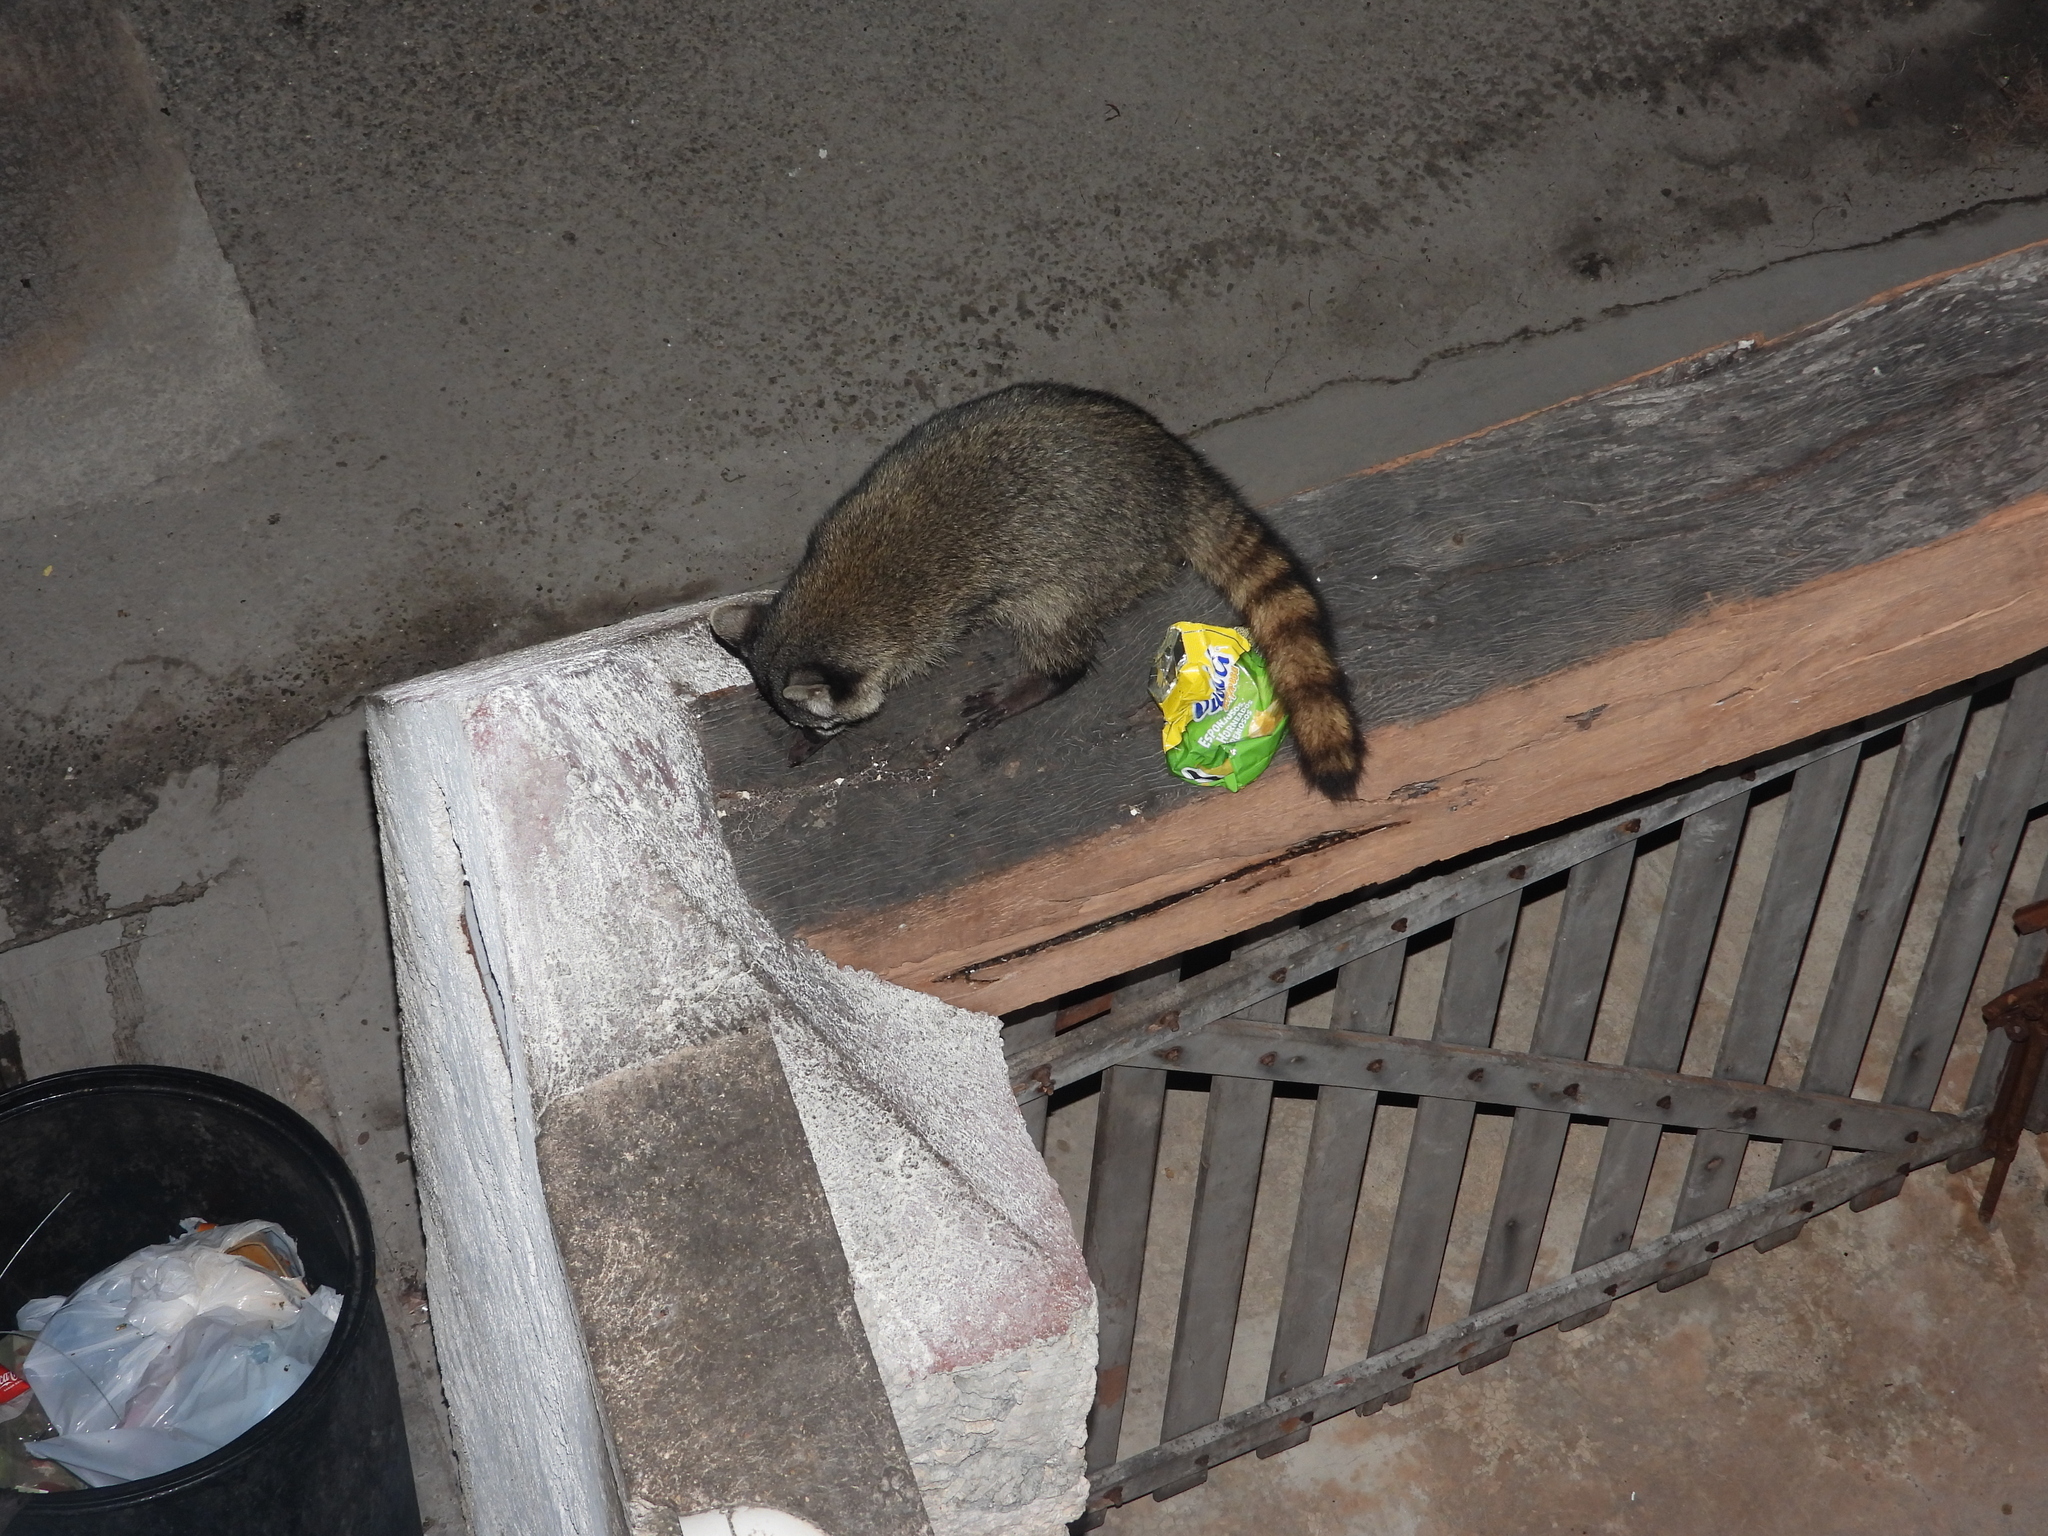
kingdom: Animalia
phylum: Chordata
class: Mammalia
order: Carnivora
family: Procyonidae
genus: Procyon
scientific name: Procyon lotor
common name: Raccoon
